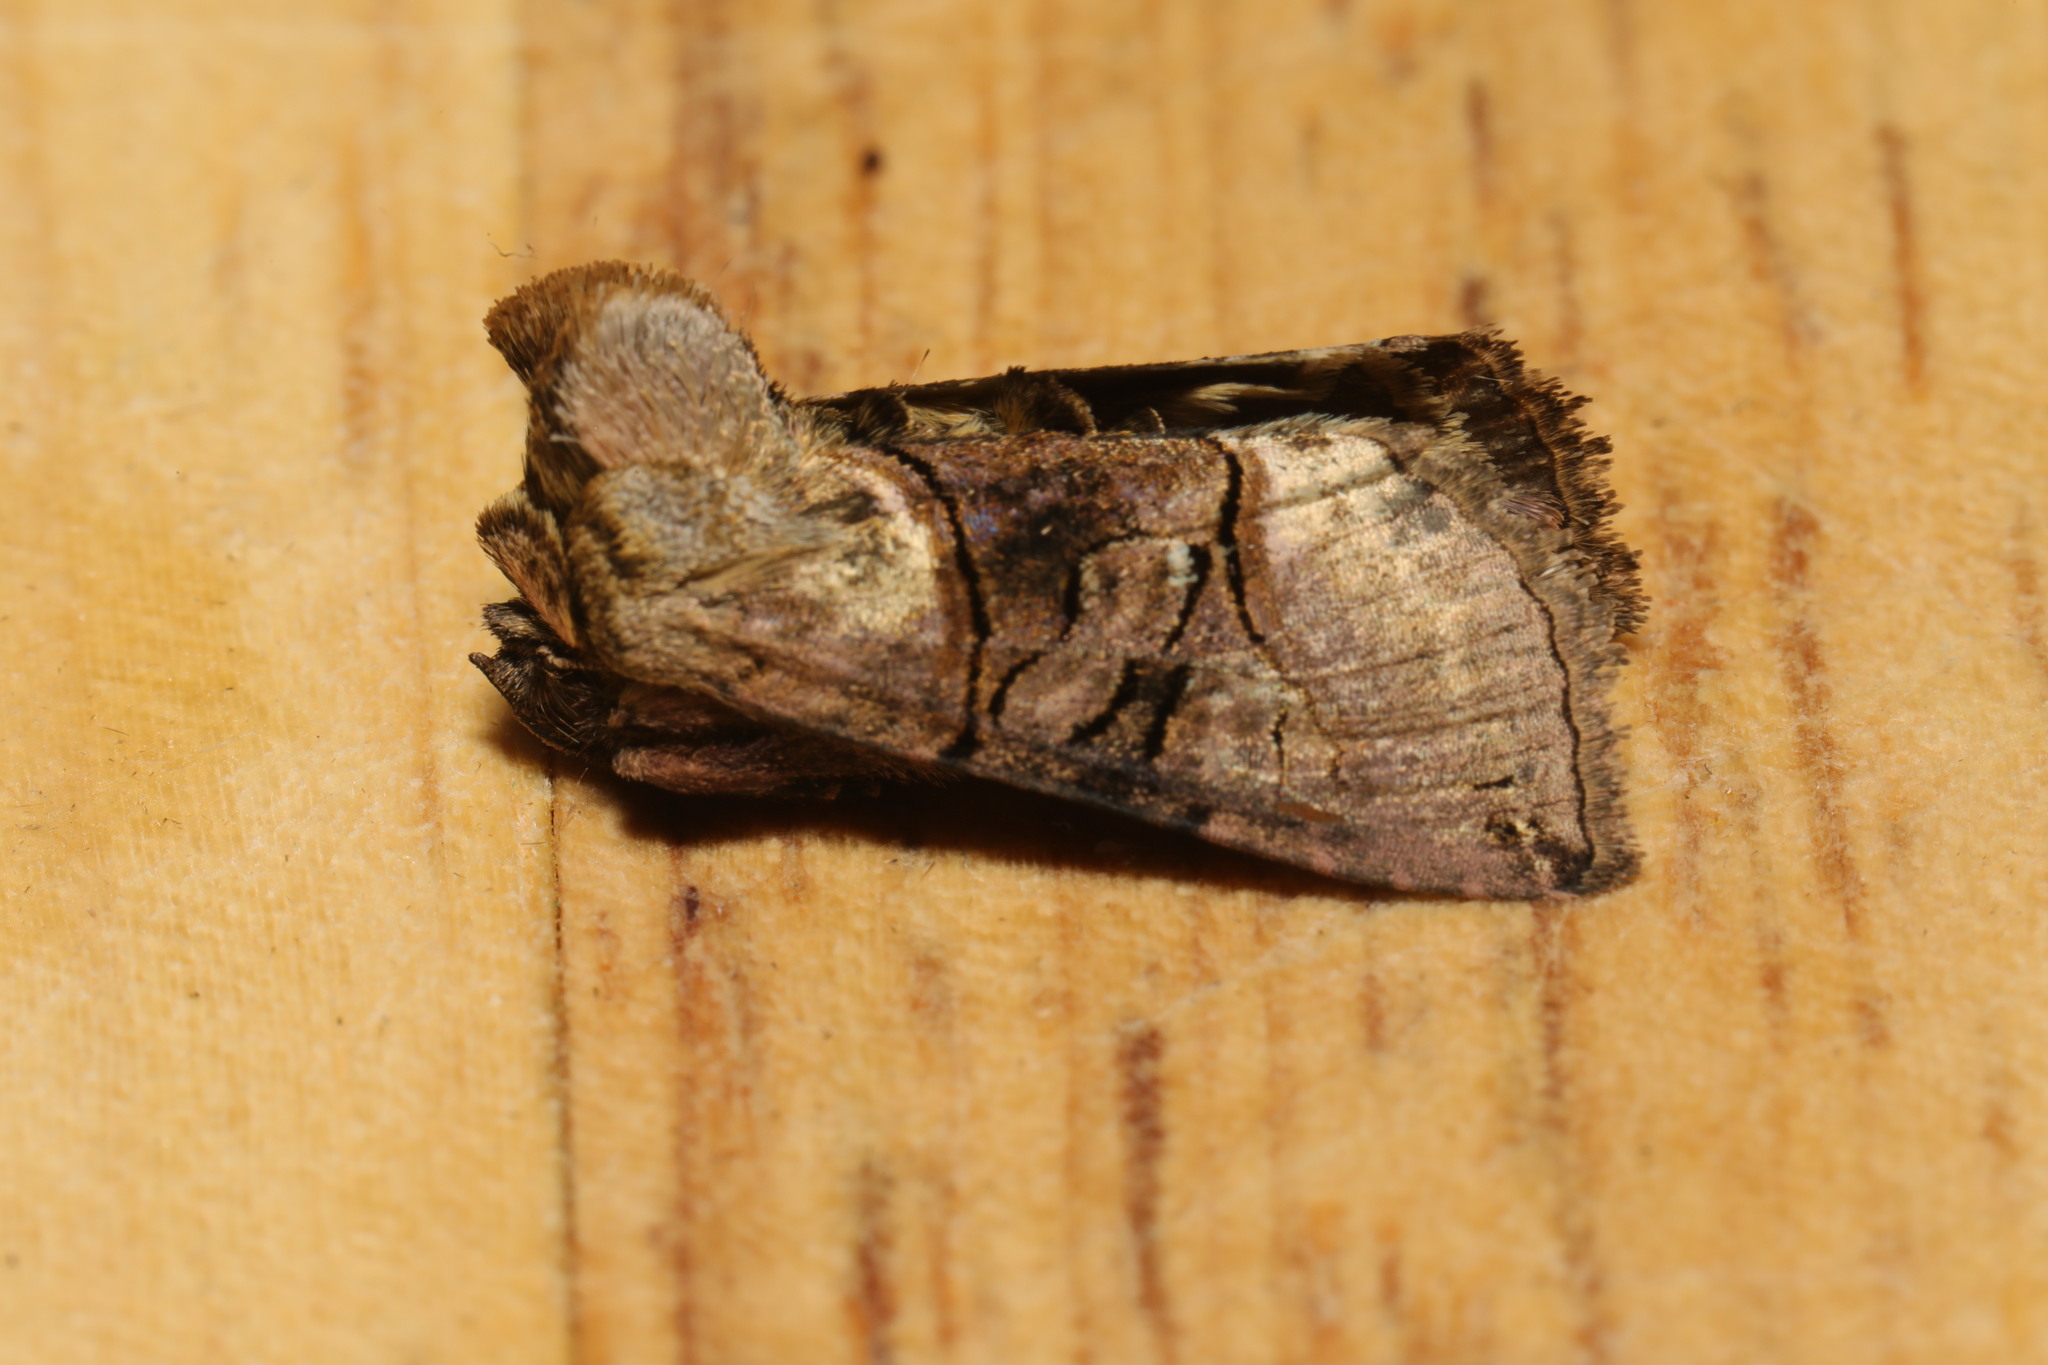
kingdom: Animalia
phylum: Arthropoda
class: Insecta
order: Lepidoptera
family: Noctuidae
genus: Abrostola
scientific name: Abrostola tripartita
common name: Spectacle
